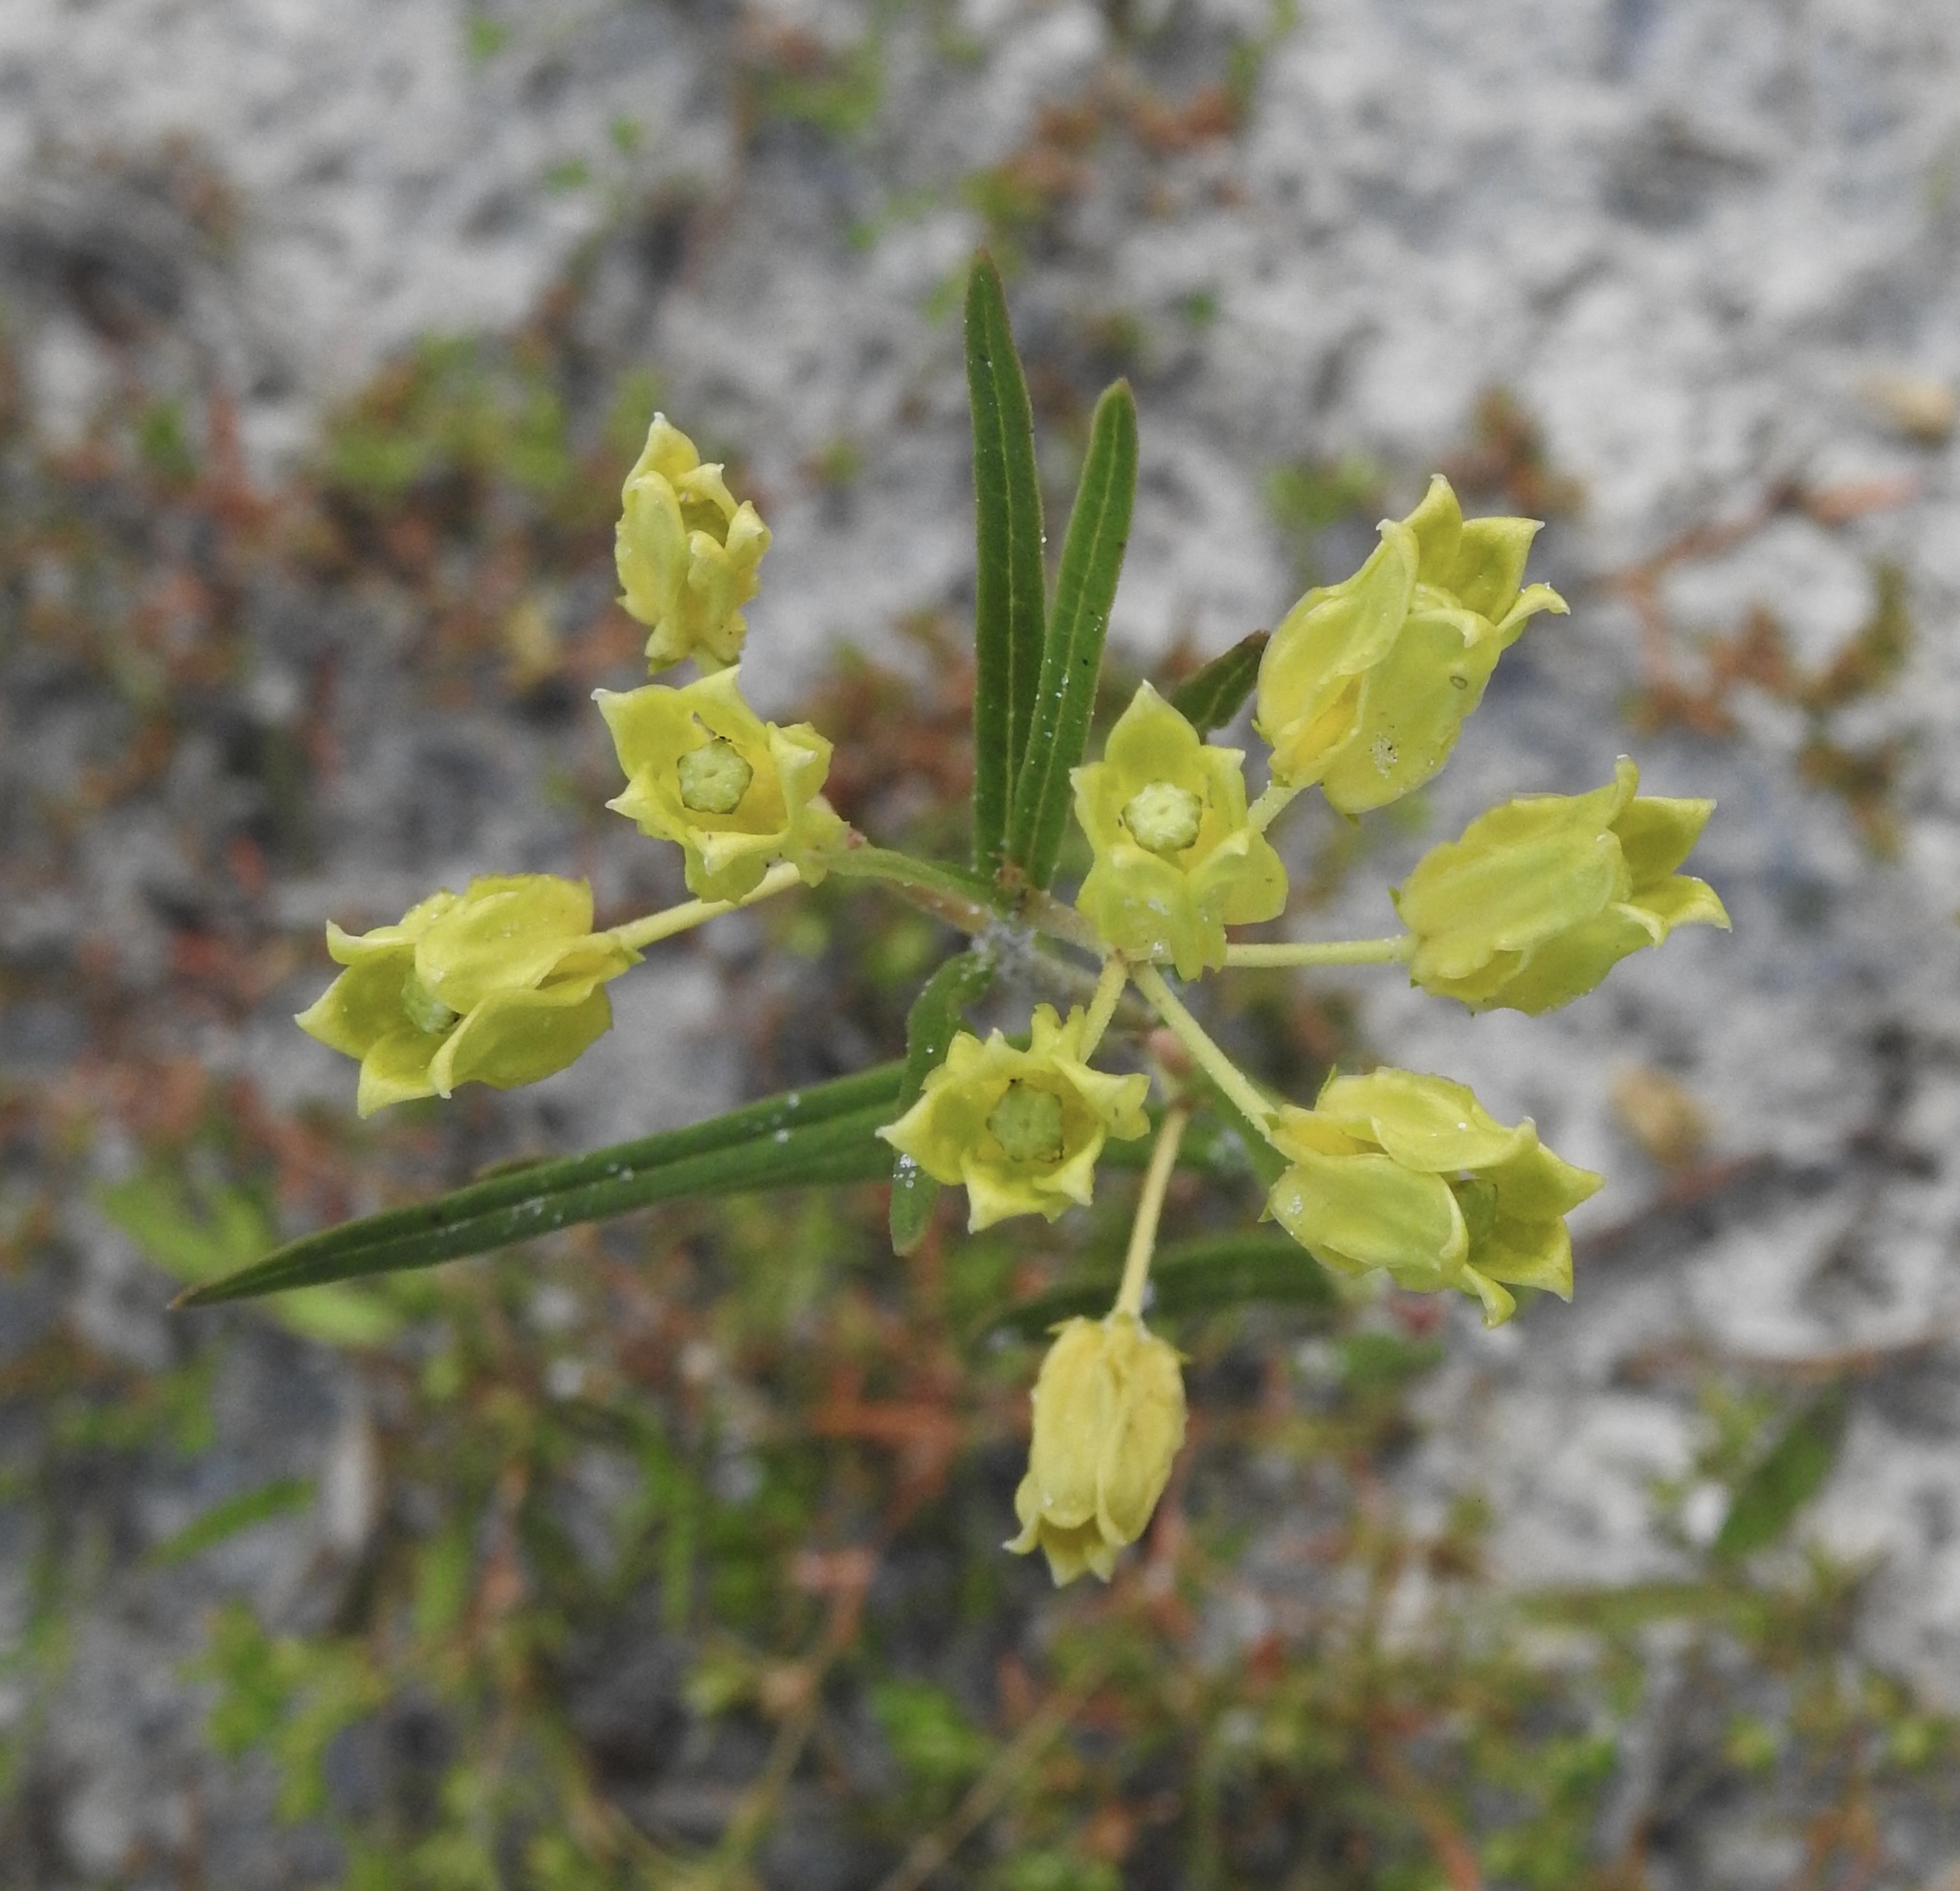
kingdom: Plantae
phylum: Tracheophyta
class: Magnoliopsida
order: Gentianales
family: Apocynaceae
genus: Asclepias
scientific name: Asclepias pedicellata
